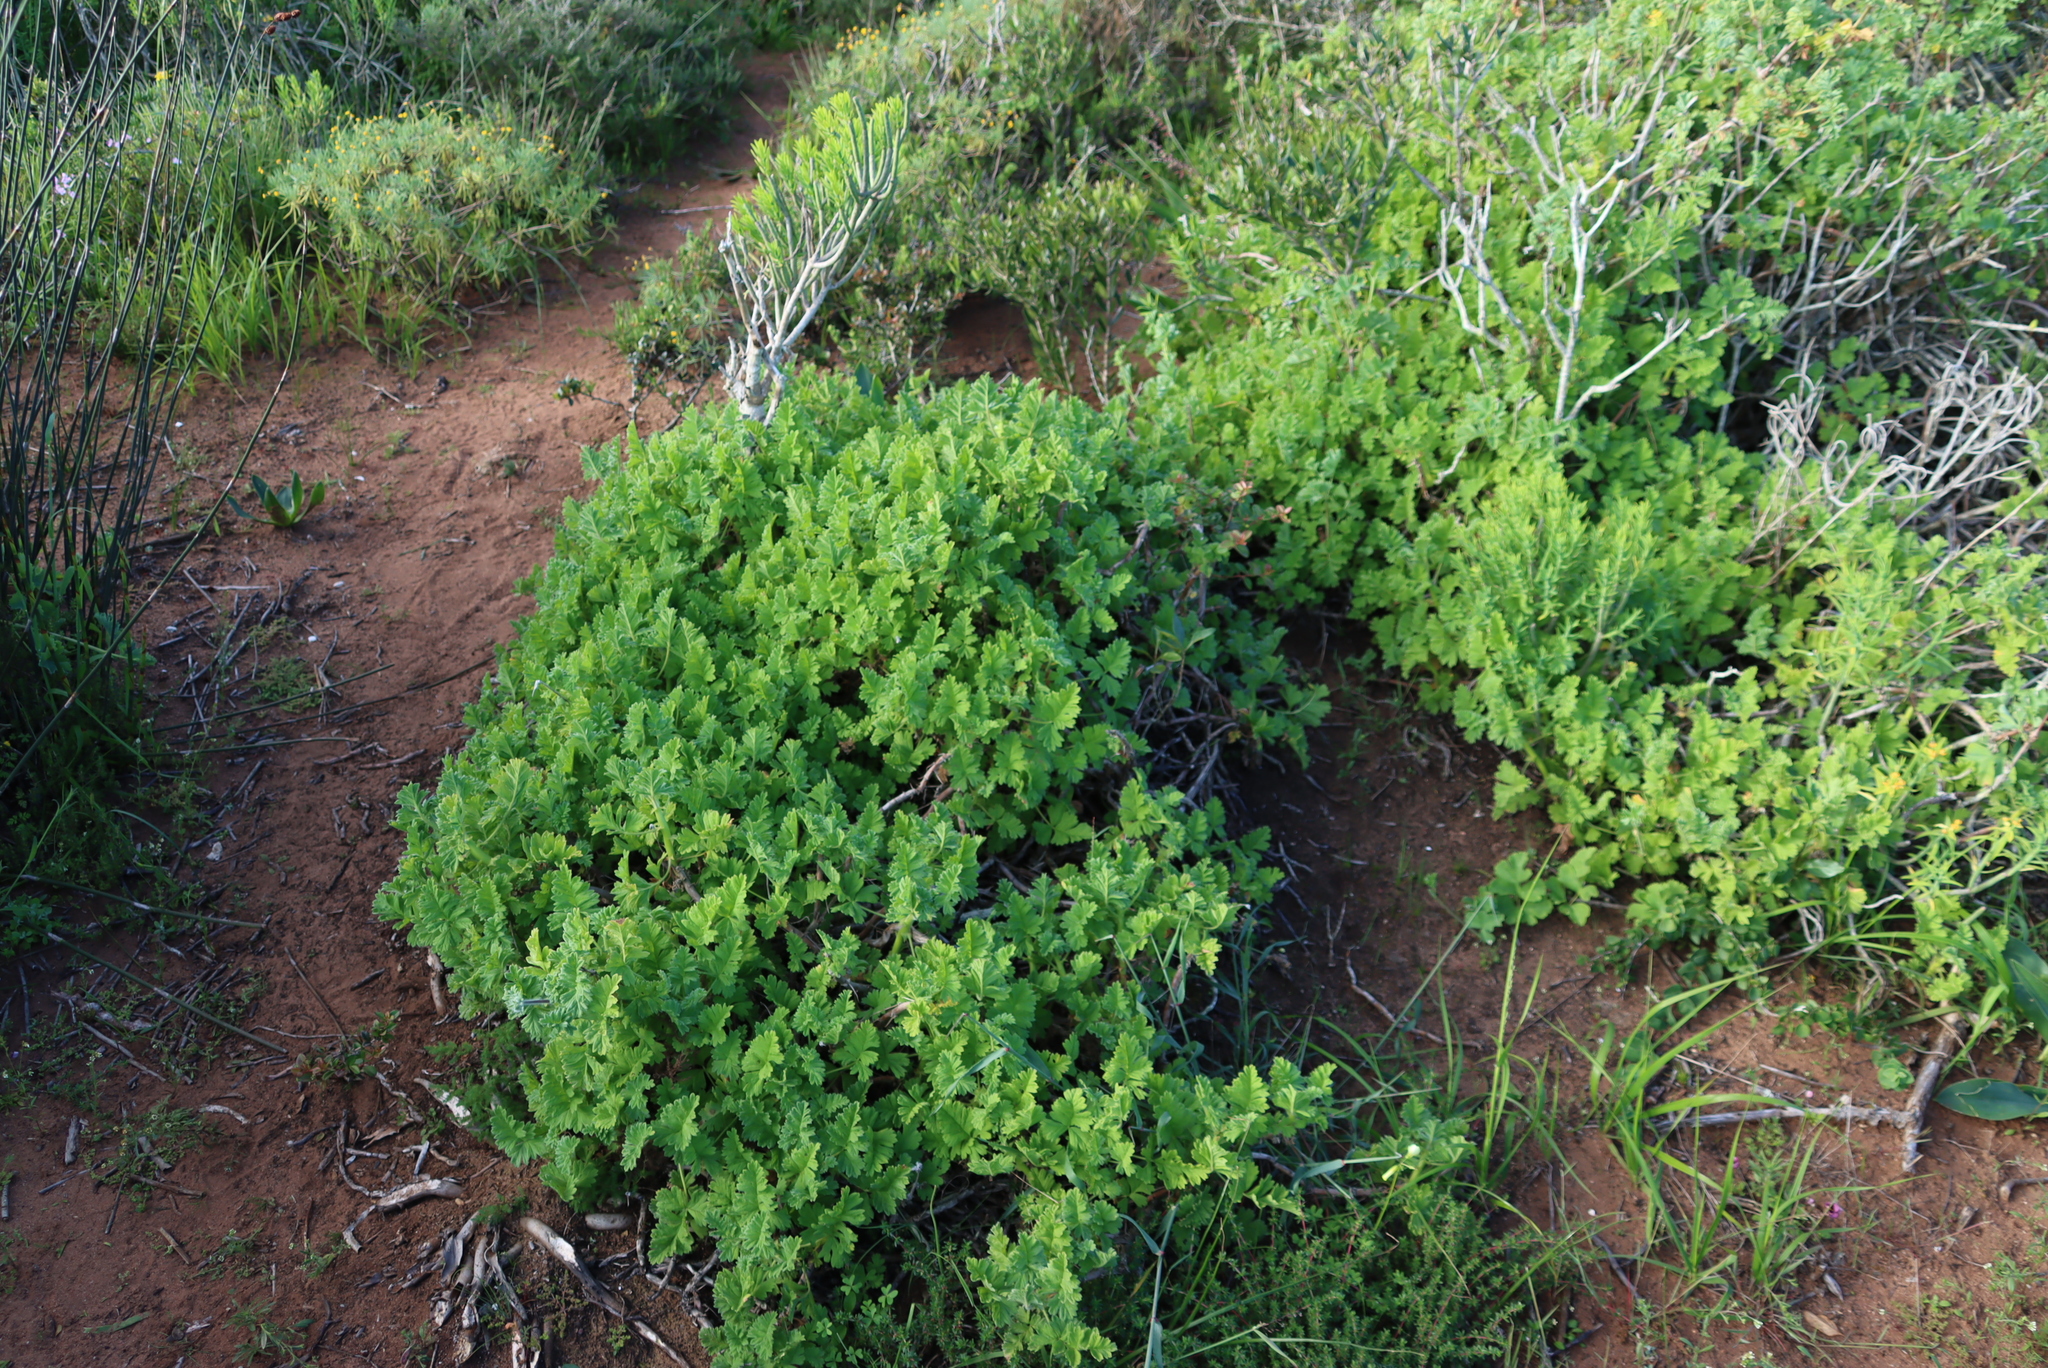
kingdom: Plantae
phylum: Tracheophyta
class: Magnoliopsida
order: Geraniales
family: Geraniaceae
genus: Pelargonium
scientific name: Pelargonium fulgidum
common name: Celandine-leaf pelargonium
